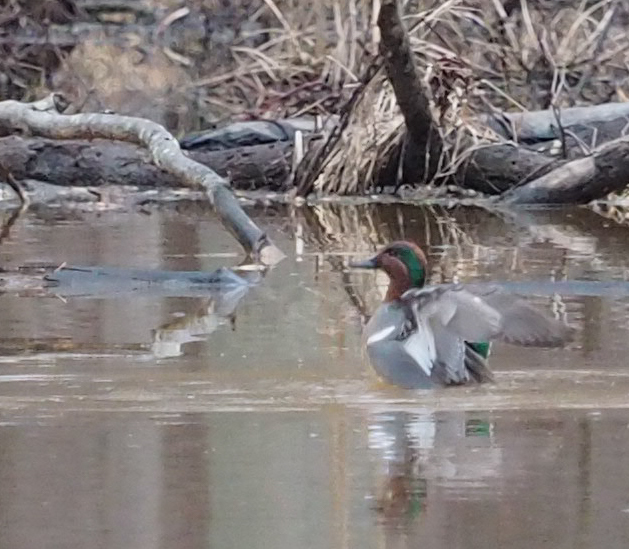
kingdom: Animalia
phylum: Chordata
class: Aves
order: Anseriformes
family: Anatidae
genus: Anas
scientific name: Anas crecca
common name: Eurasian teal
